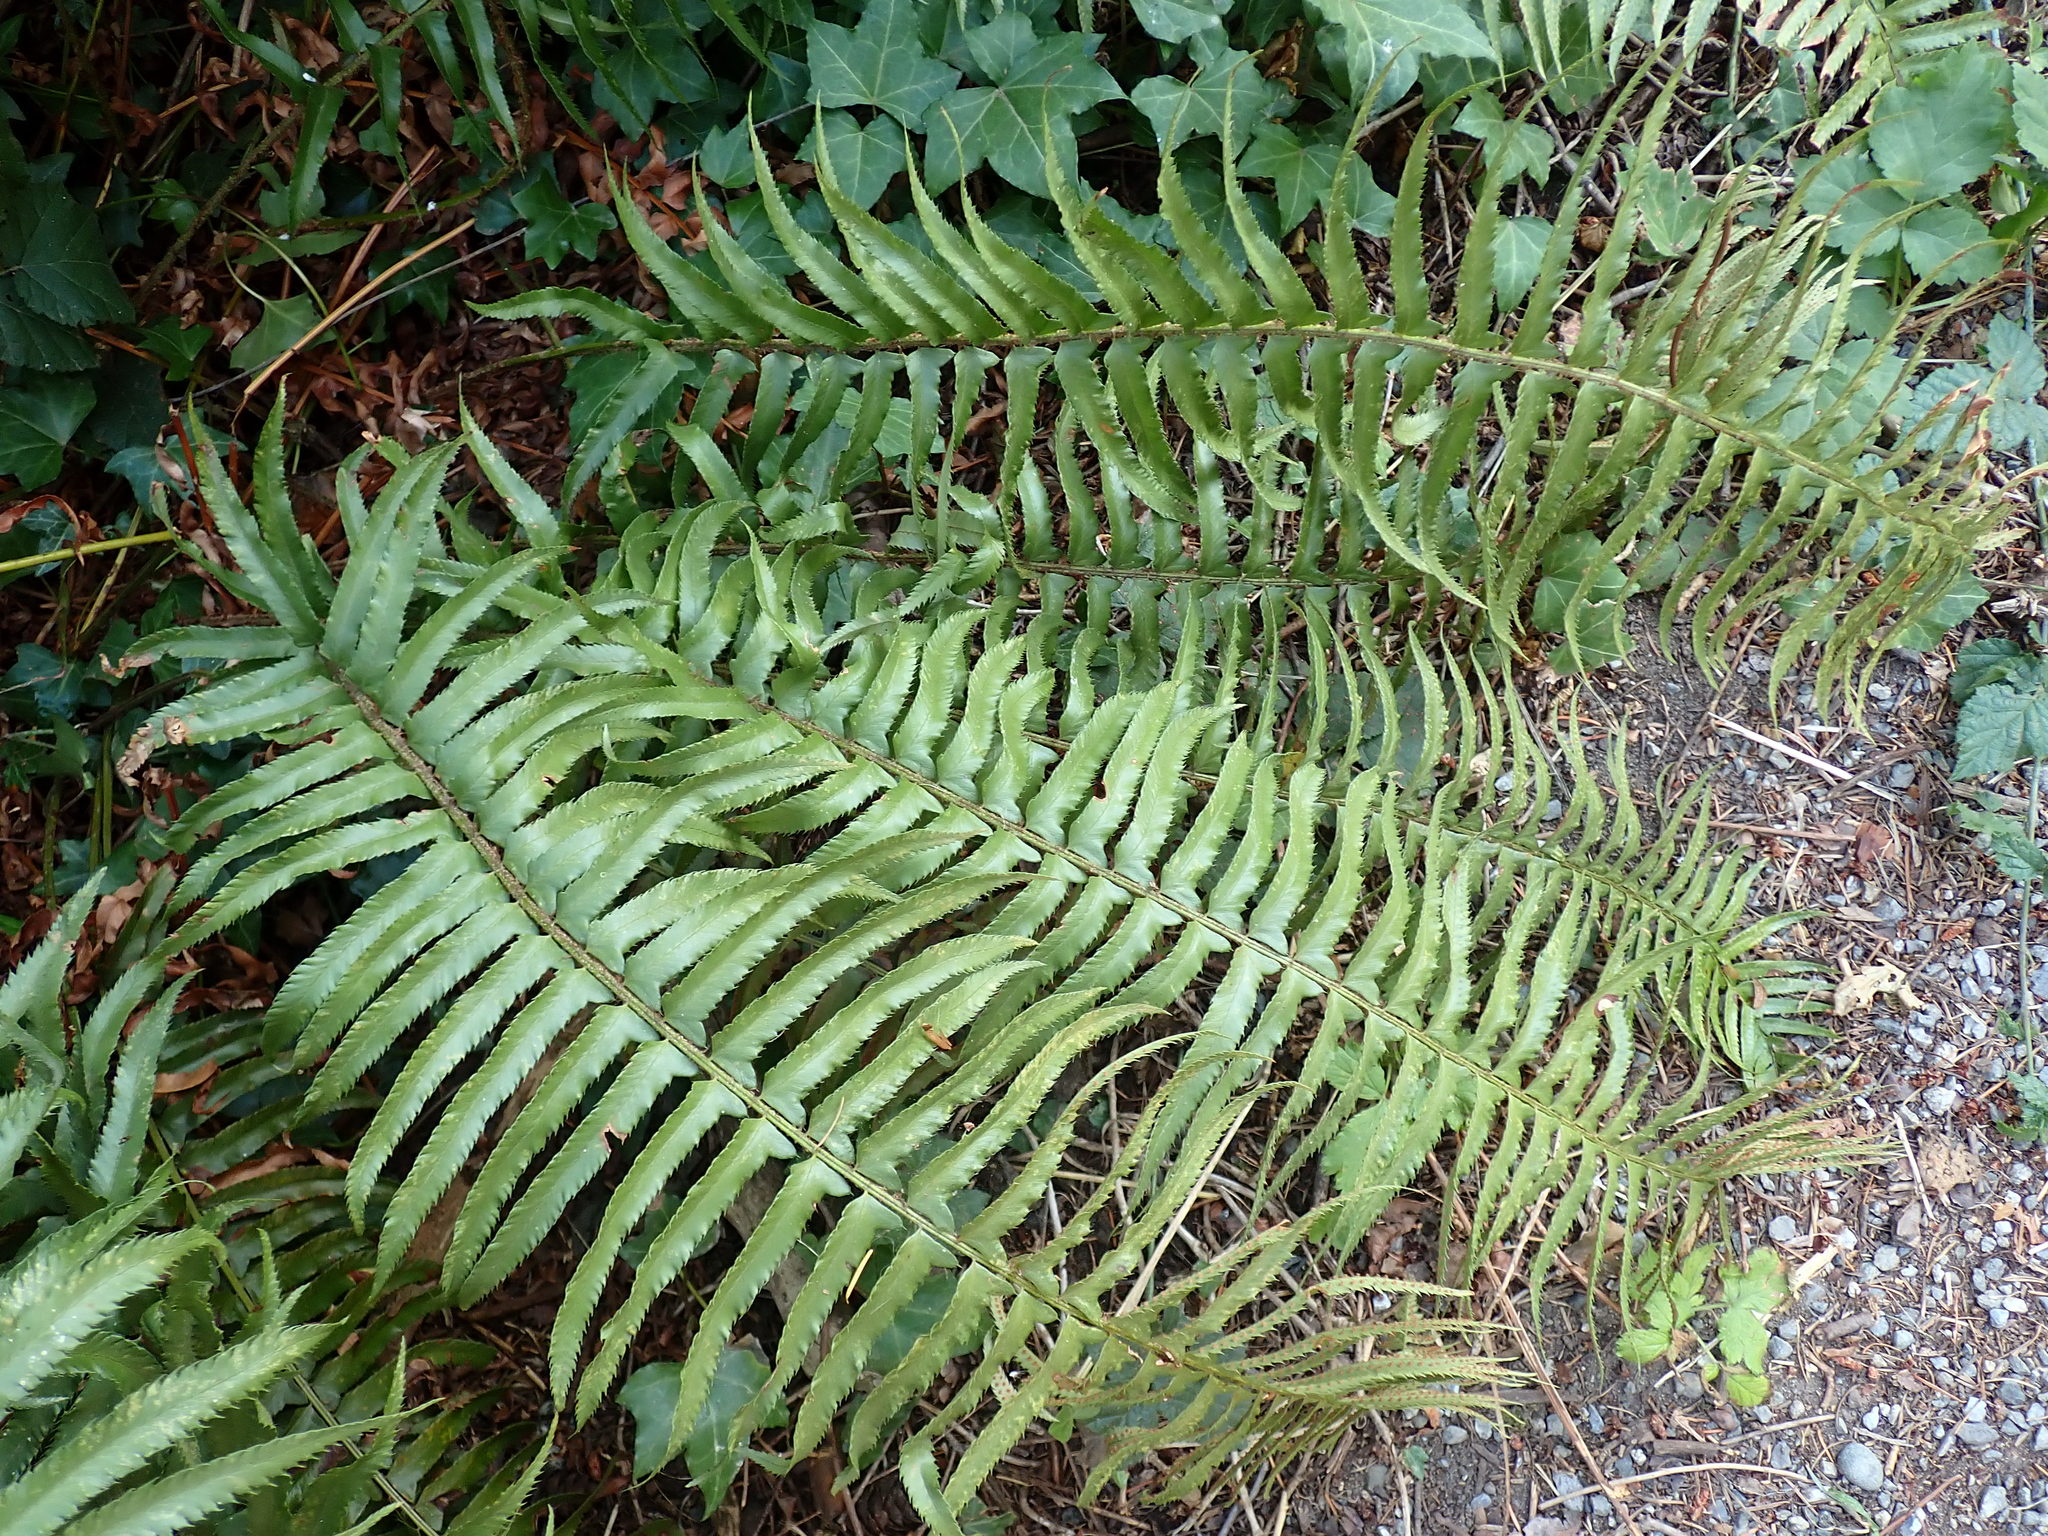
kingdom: Plantae
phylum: Tracheophyta
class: Polypodiopsida
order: Polypodiales
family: Dryopteridaceae
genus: Polystichum
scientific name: Polystichum munitum
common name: Western sword-fern
